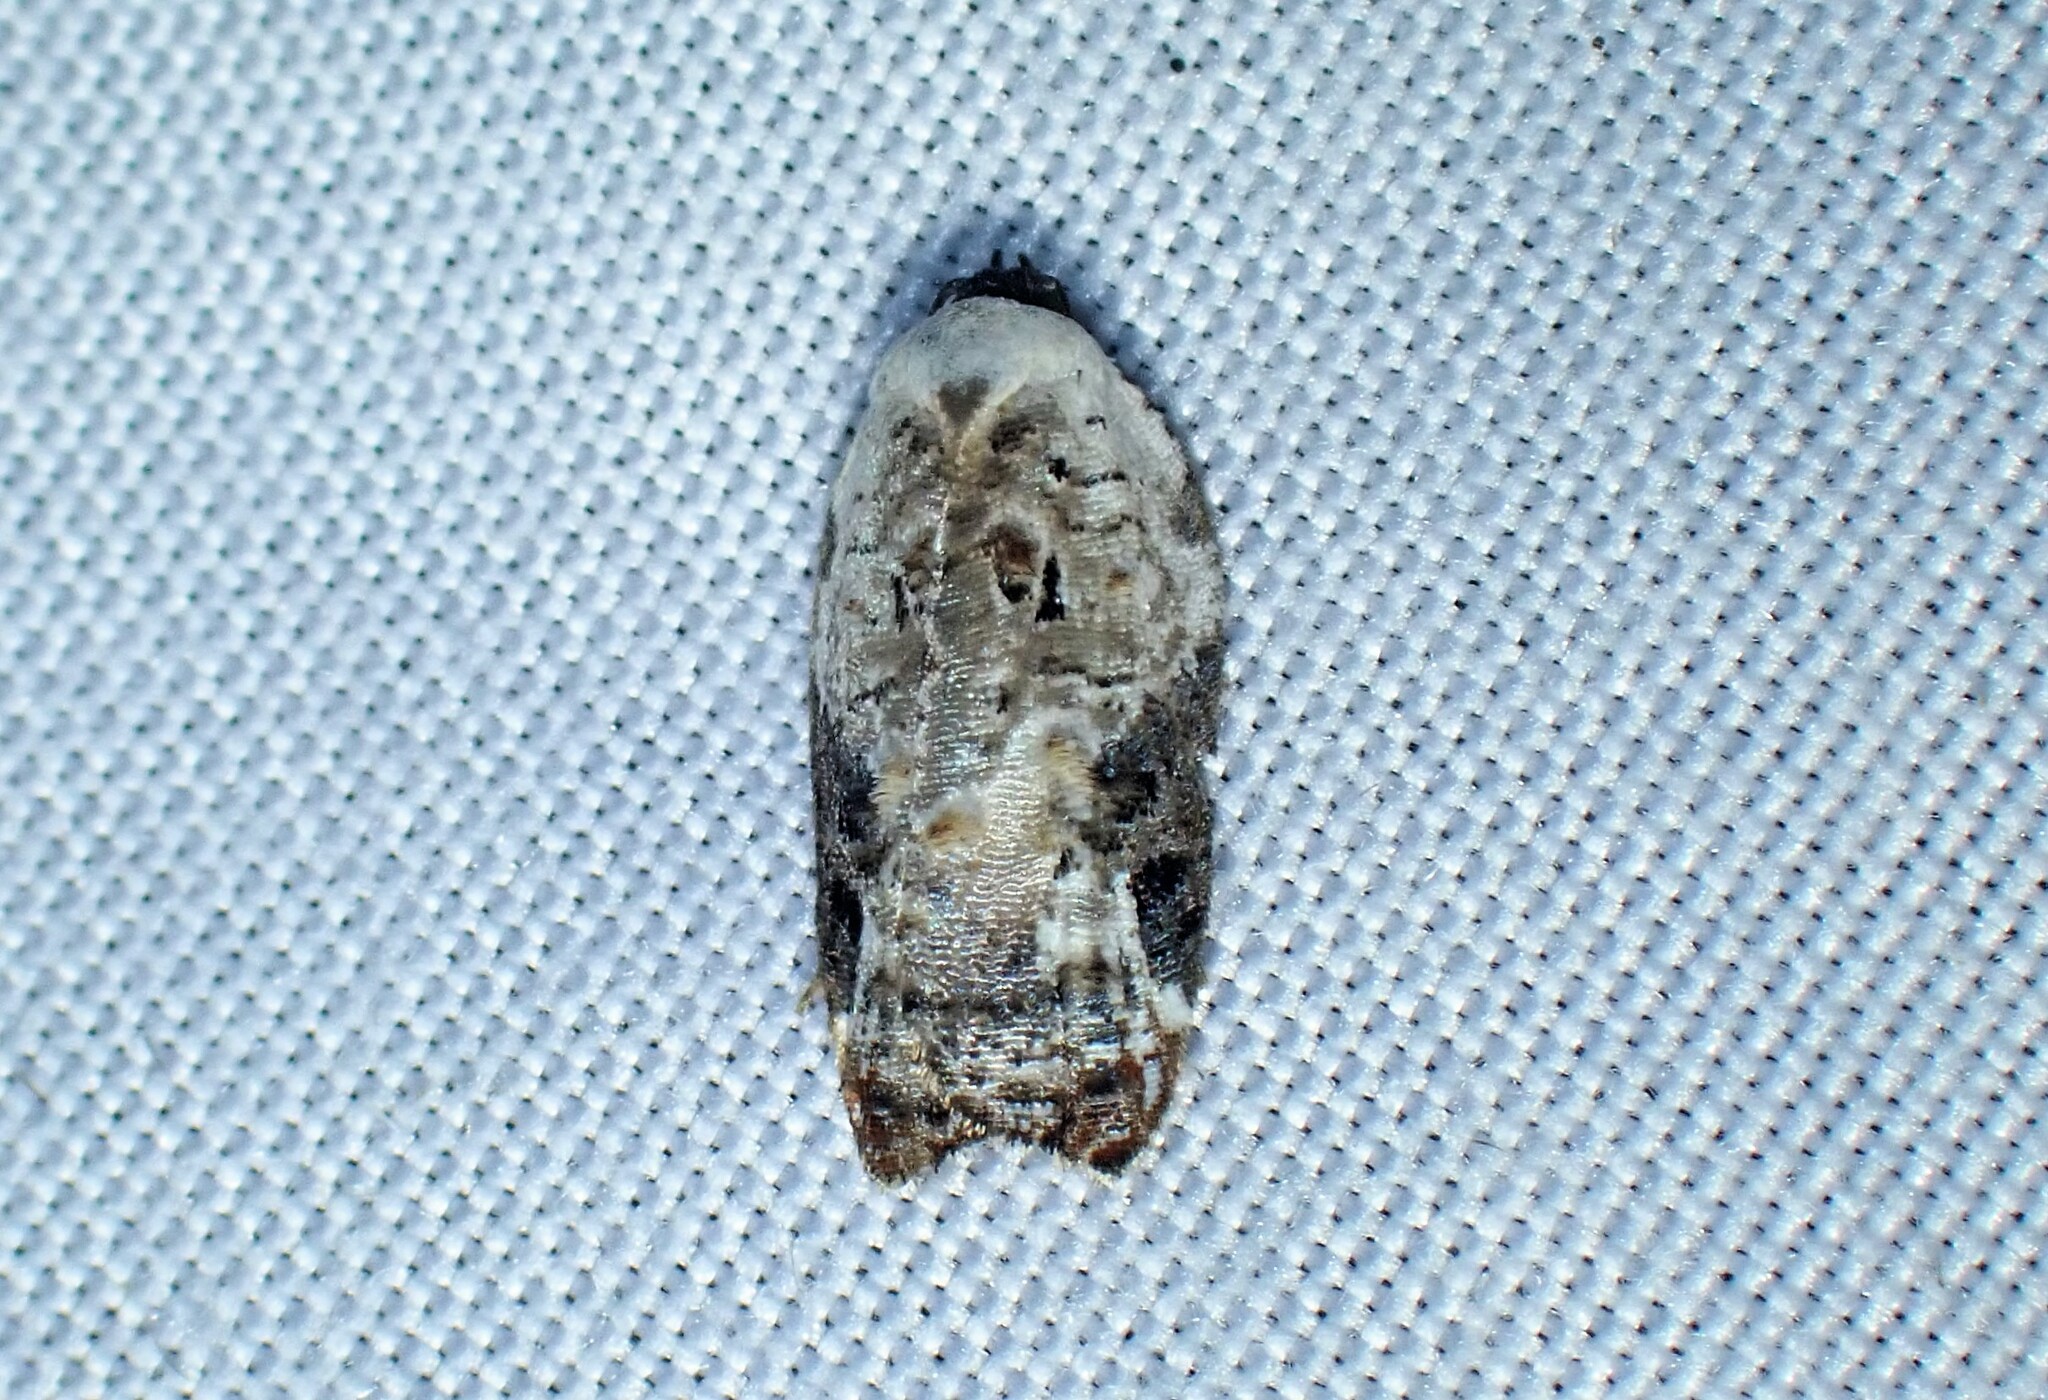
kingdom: Animalia
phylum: Arthropoda
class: Insecta
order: Lepidoptera
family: Tortricidae
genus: Acleris
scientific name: Acleris nivisellana
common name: Snowy-shouldered acleris moth
